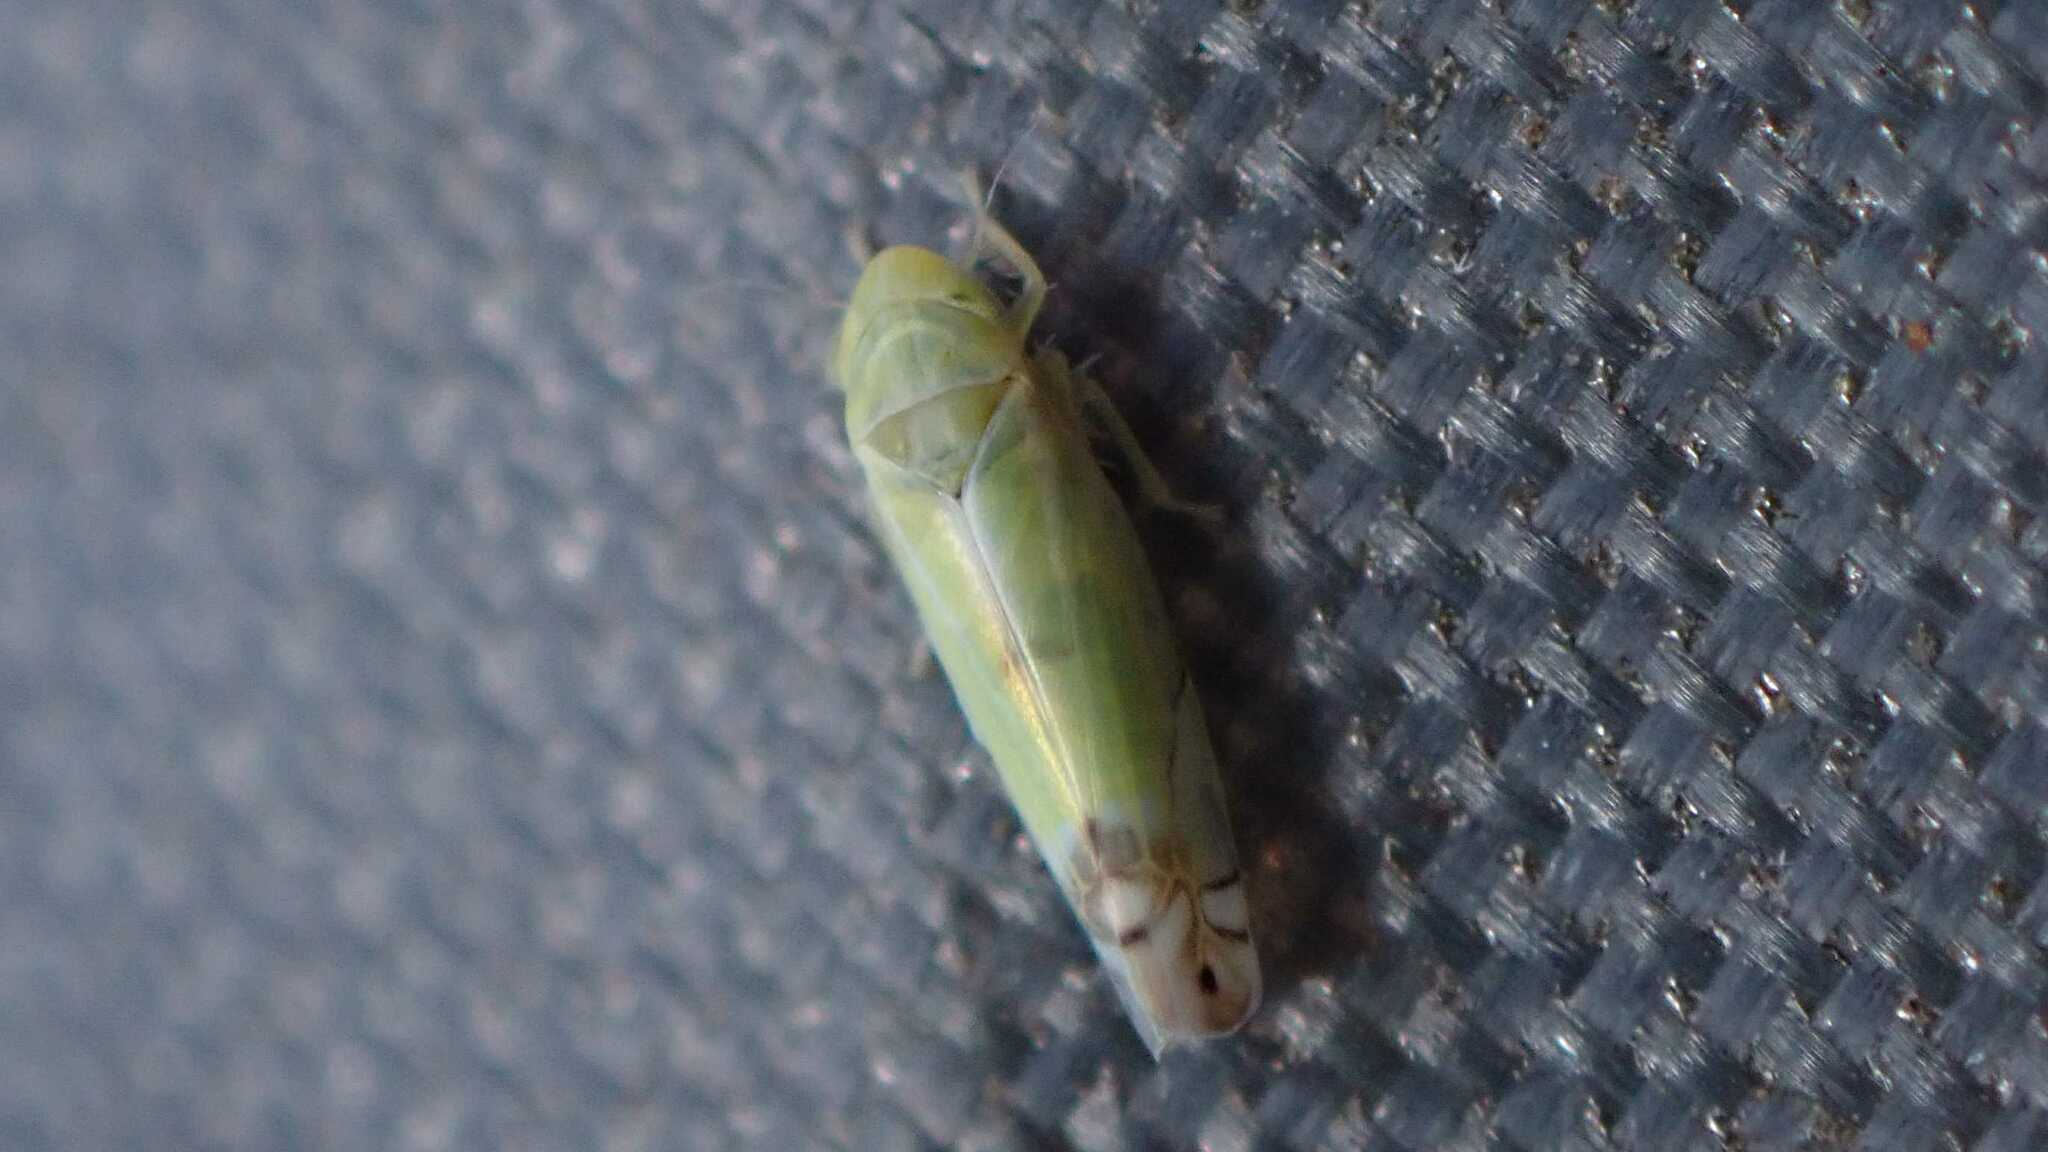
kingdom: Animalia
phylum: Arthropoda
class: Insecta
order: Hemiptera
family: Cicadellidae
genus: Zyginella
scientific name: Zyginella pulchra
